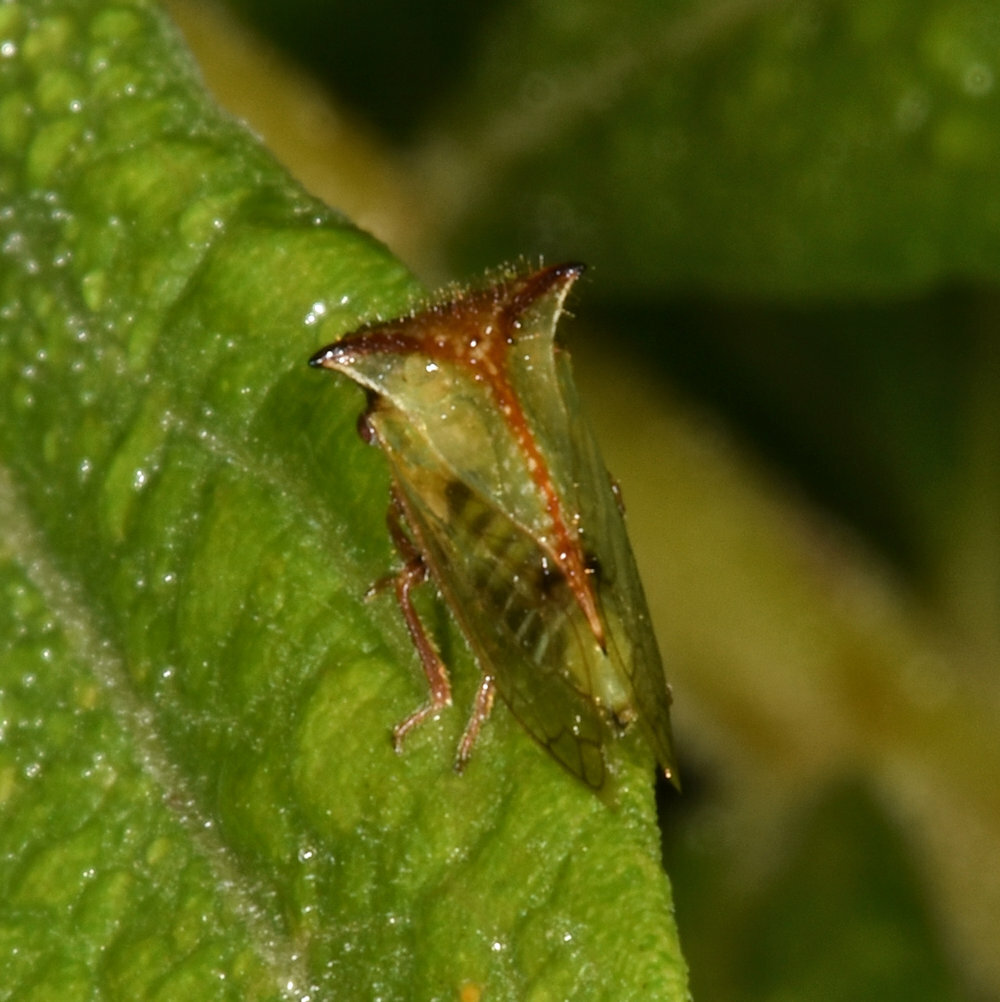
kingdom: Animalia
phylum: Arthropoda
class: Insecta
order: Hemiptera
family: Membracidae
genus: Stictocephala
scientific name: Stictocephala basalis
